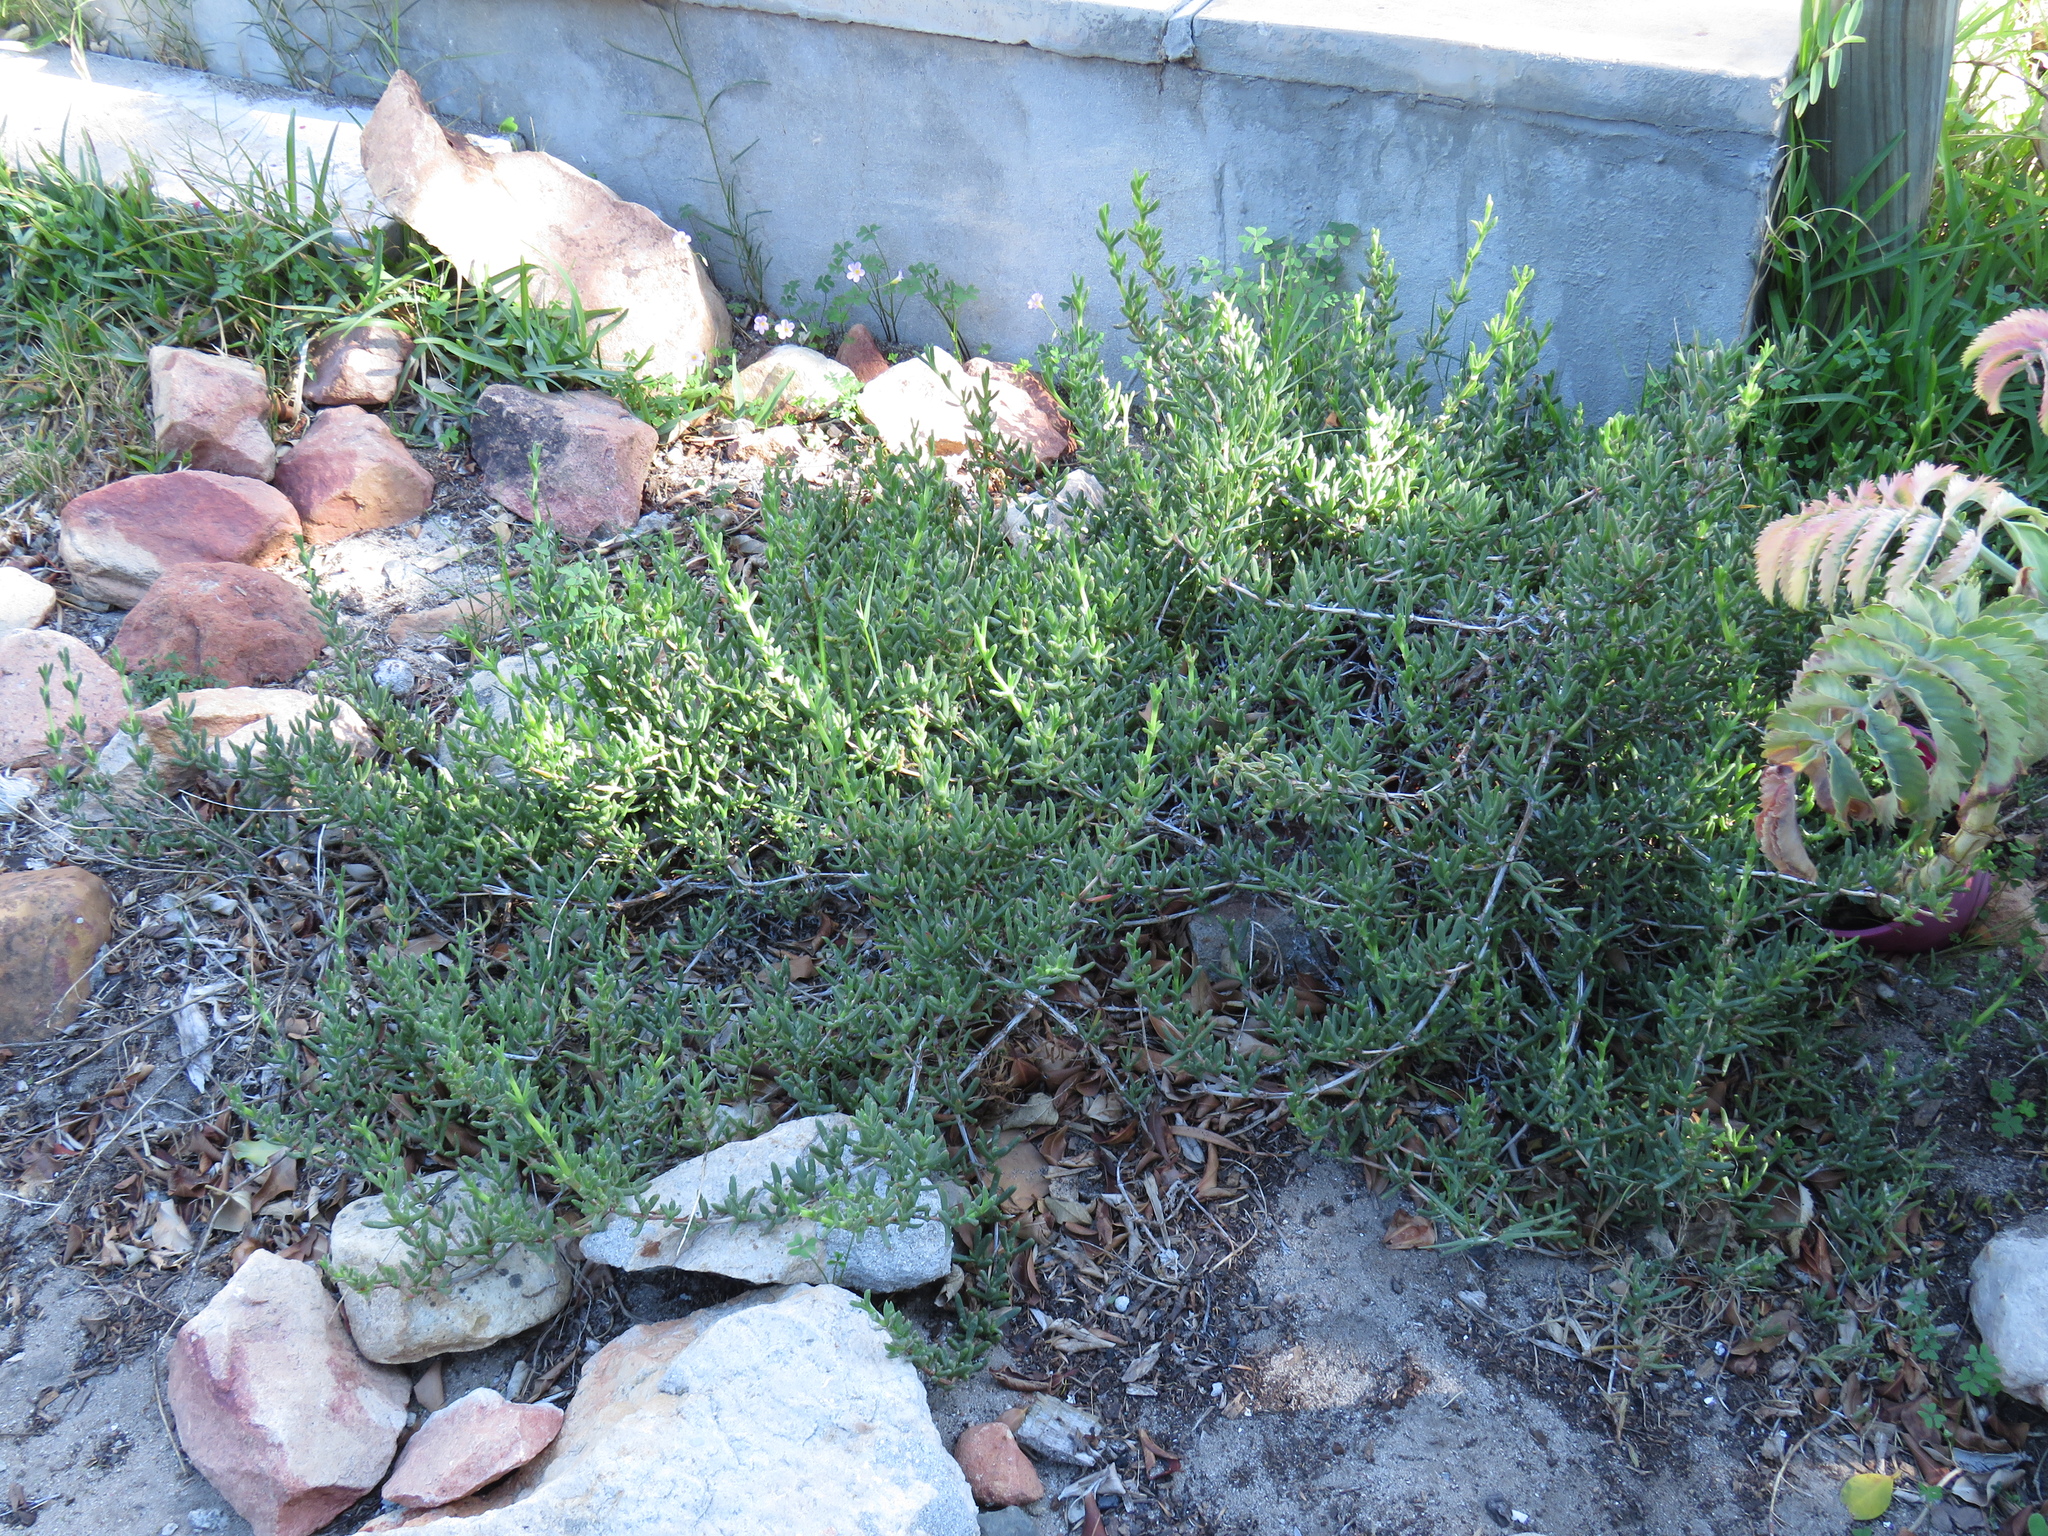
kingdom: Plantae
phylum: Tracheophyta
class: Magnoliopsida
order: Caryophyllales
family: Aizoaceae
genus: Ruschia
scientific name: Ruschia macowanii
